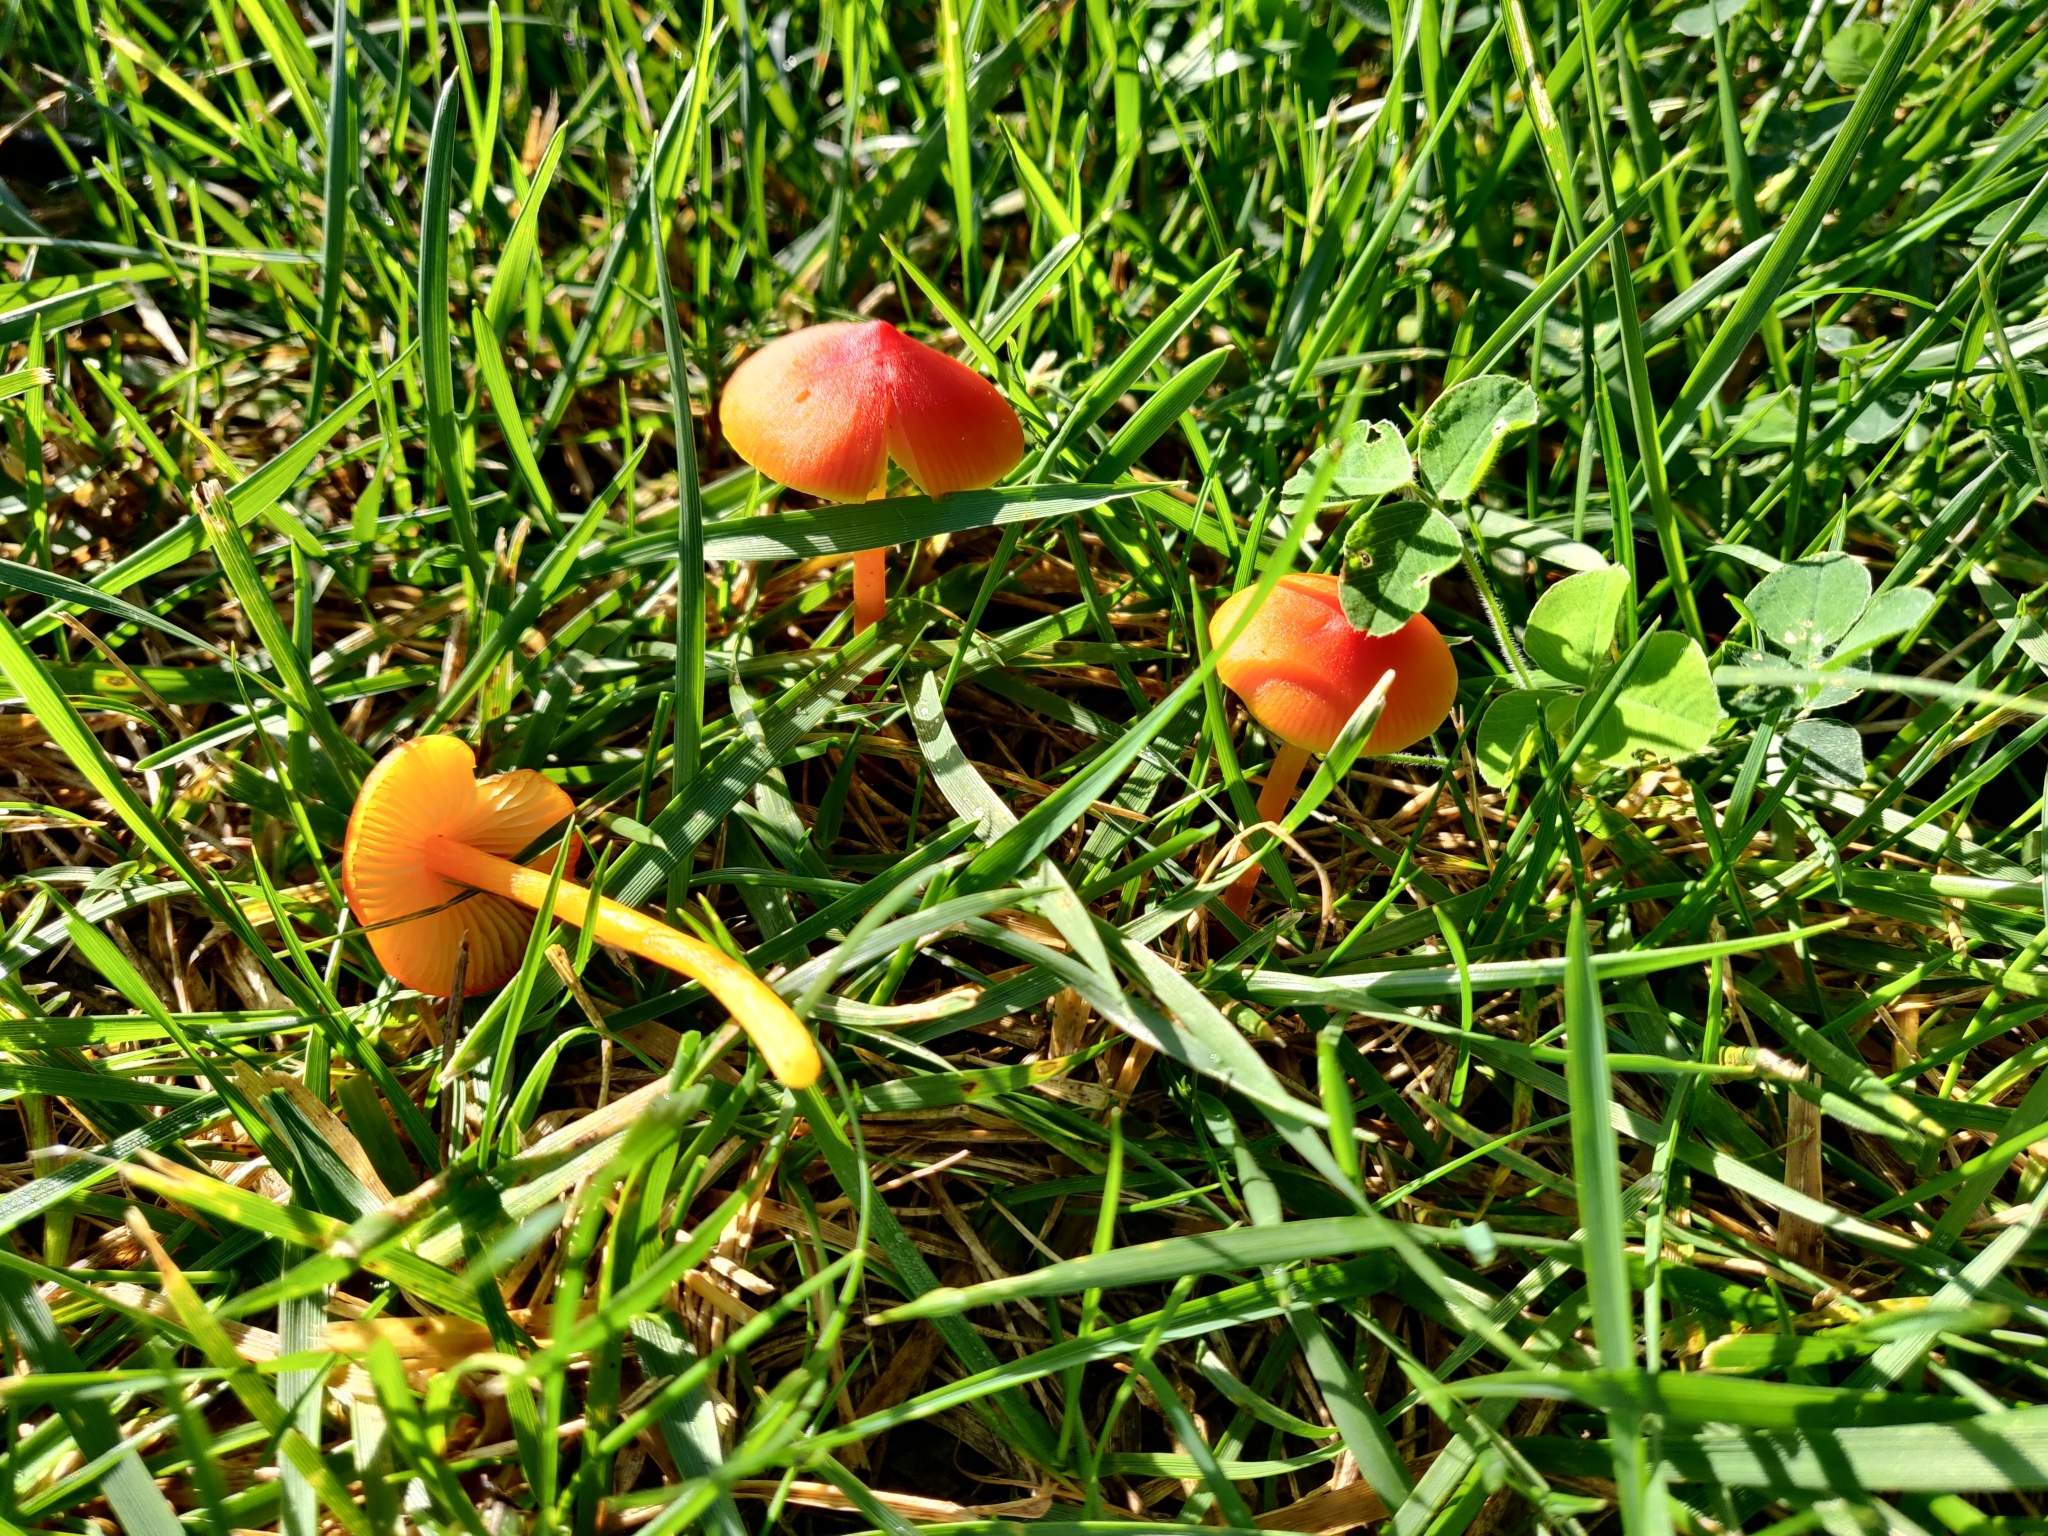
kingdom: Fungi
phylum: Basidiomycota
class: Agaricomycetes
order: Agaricales
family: Hygrophoraceae
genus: Hygrocybe
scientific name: Hygrocybe conica
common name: Blackening wax-cap
